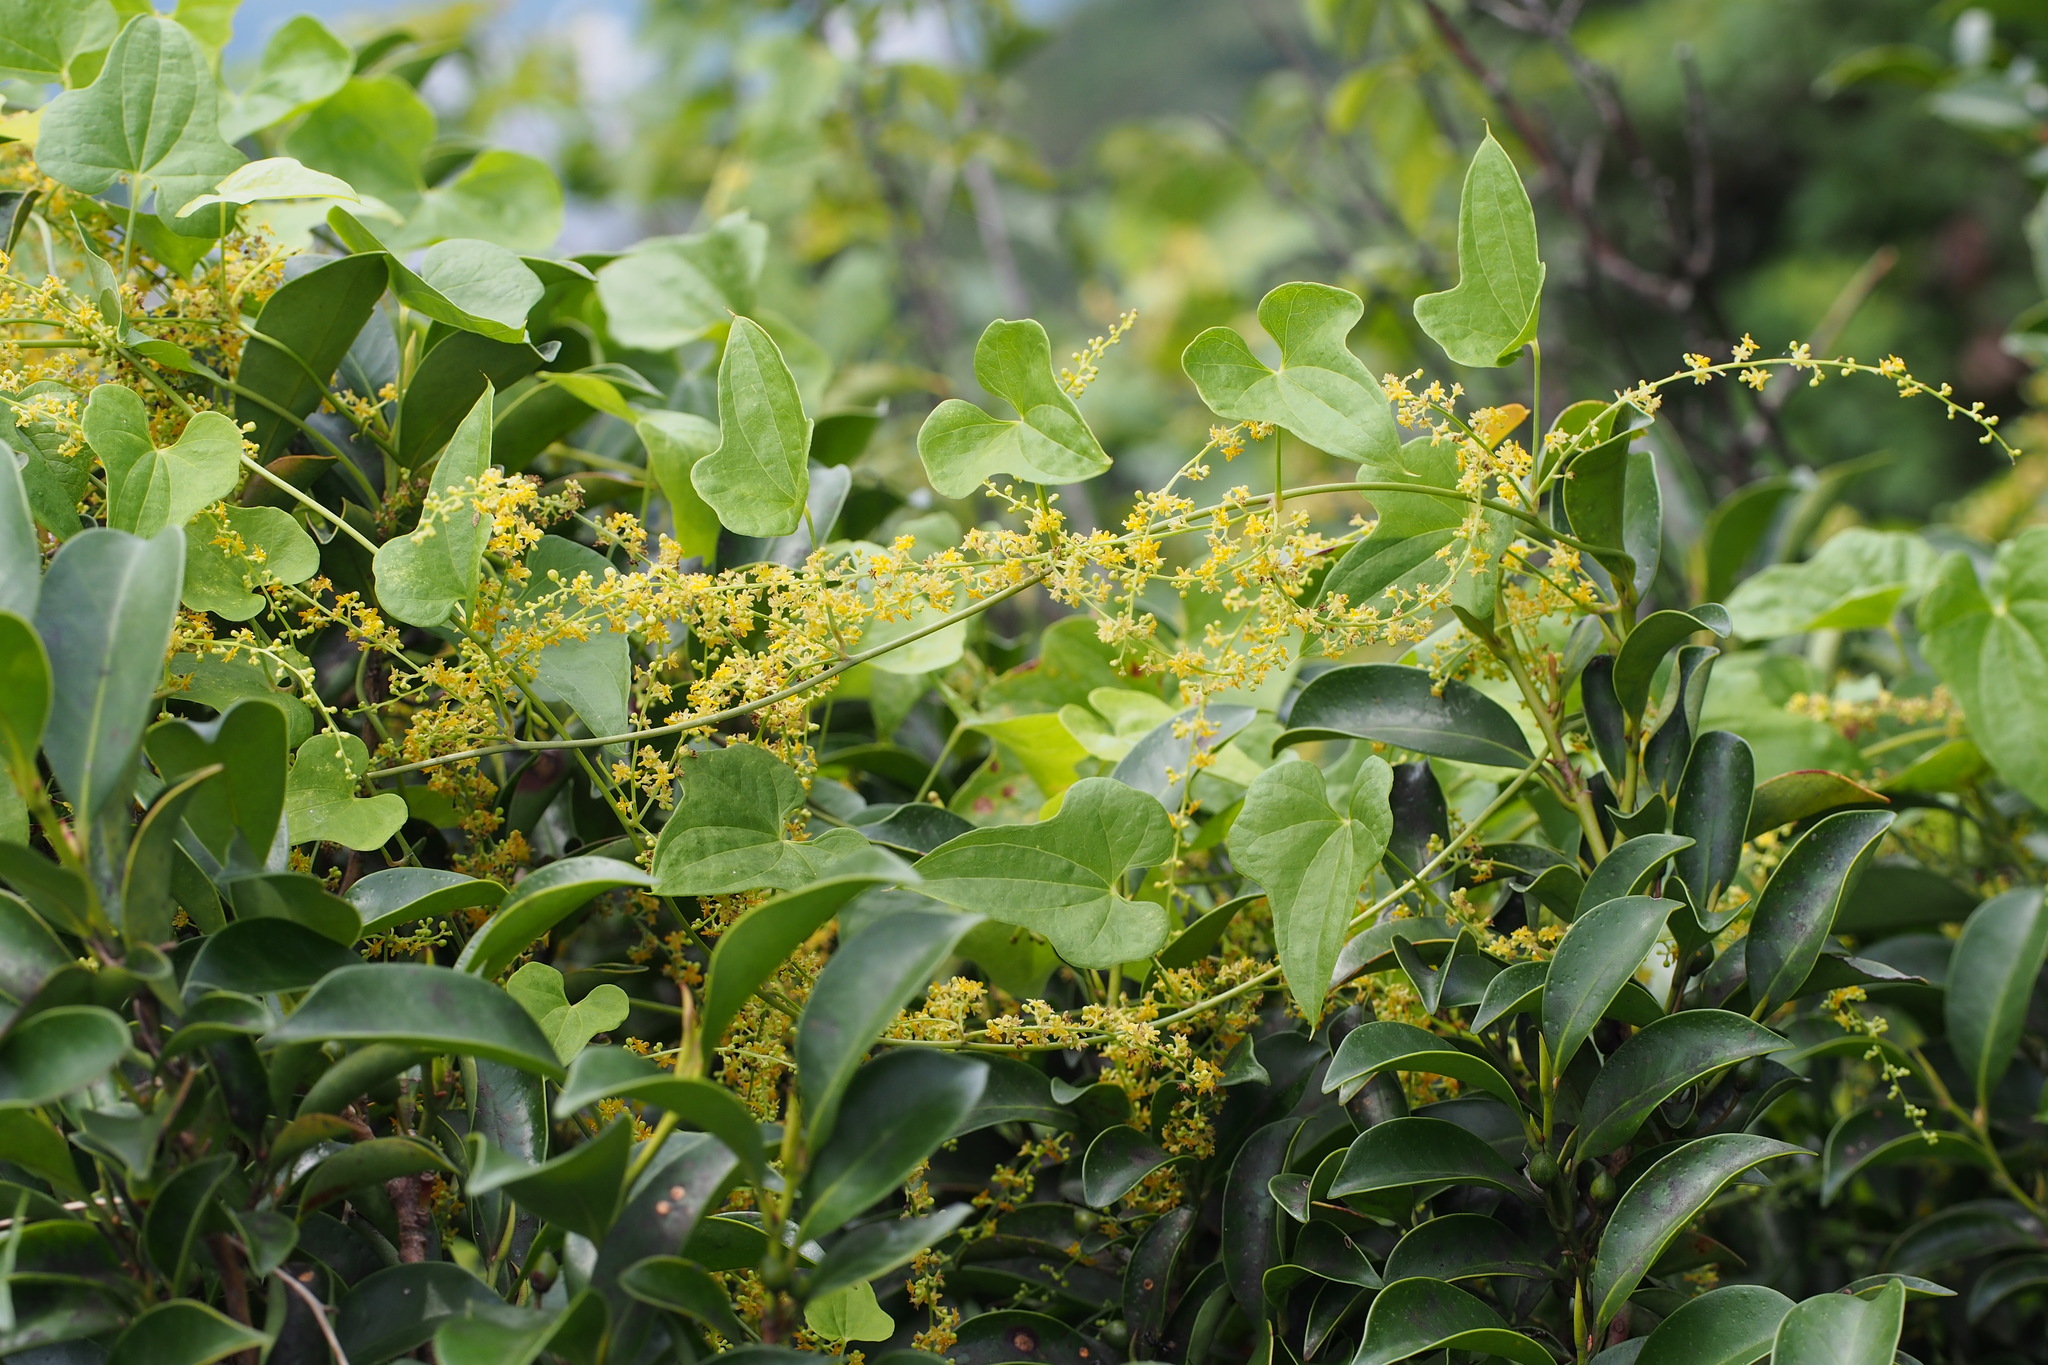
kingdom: Plantae
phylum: Tracheophyta
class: Liliopsida
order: Dioscoreales
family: Dioscoreaceae
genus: Dioscorea
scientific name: Dioscorea quinquelobata
